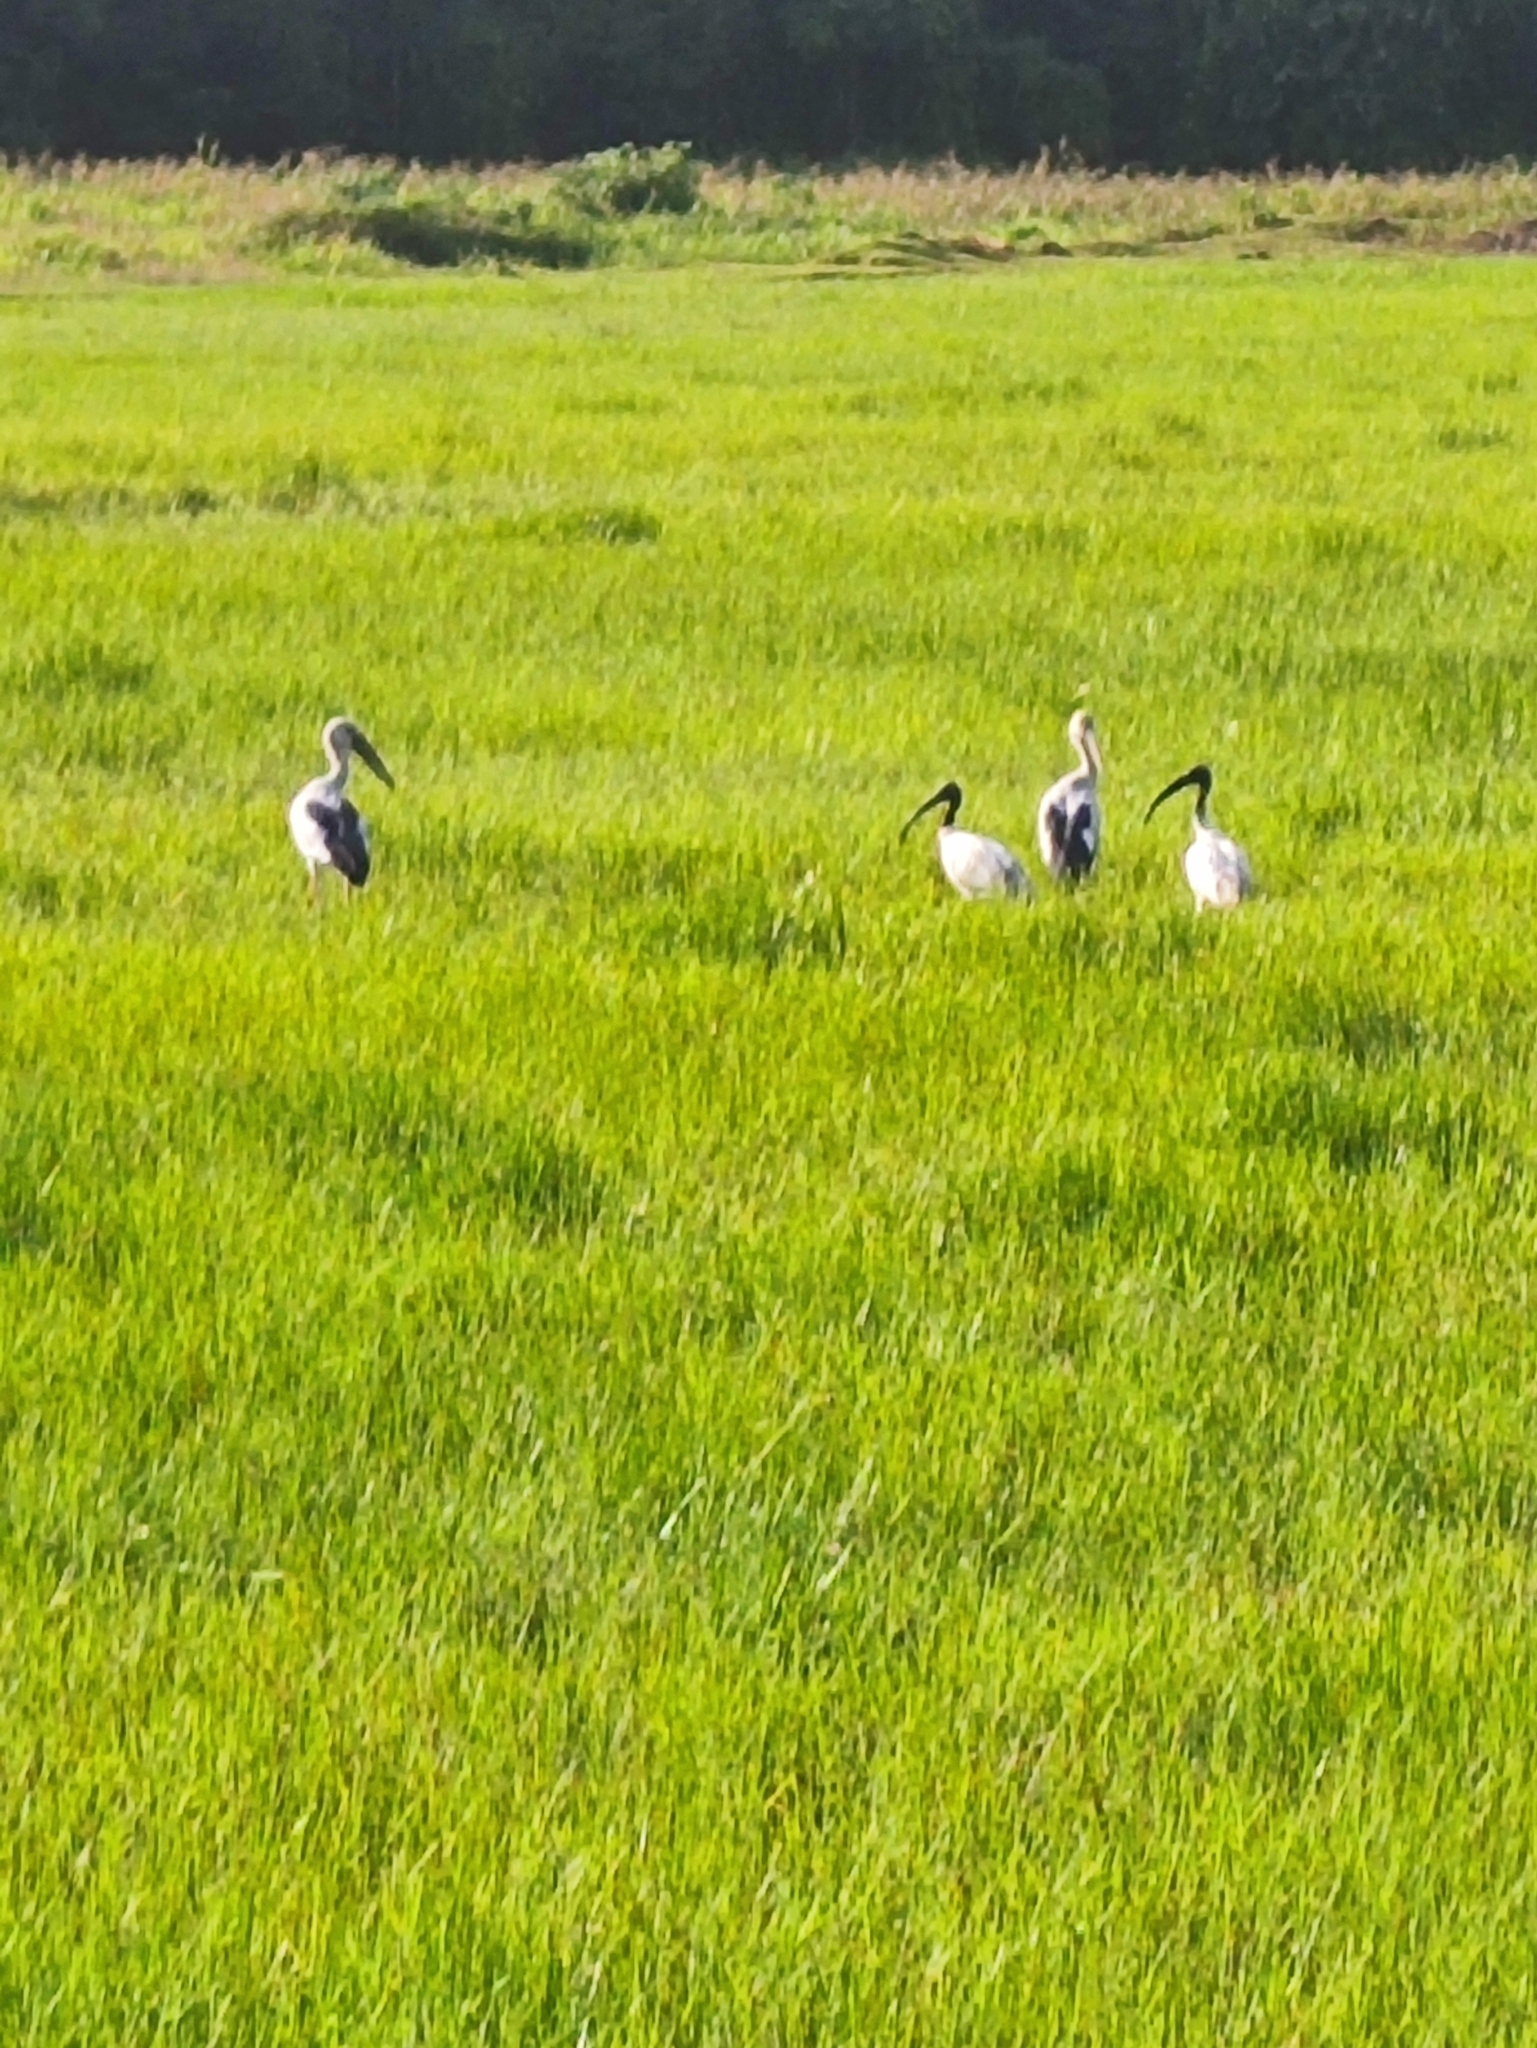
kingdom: Animalia
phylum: Chordata
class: Aves
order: Pelecaniformes
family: Threskiornithidae
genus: Threskiornis
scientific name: Threskiornis melanocephalus
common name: Black-headed ibis
